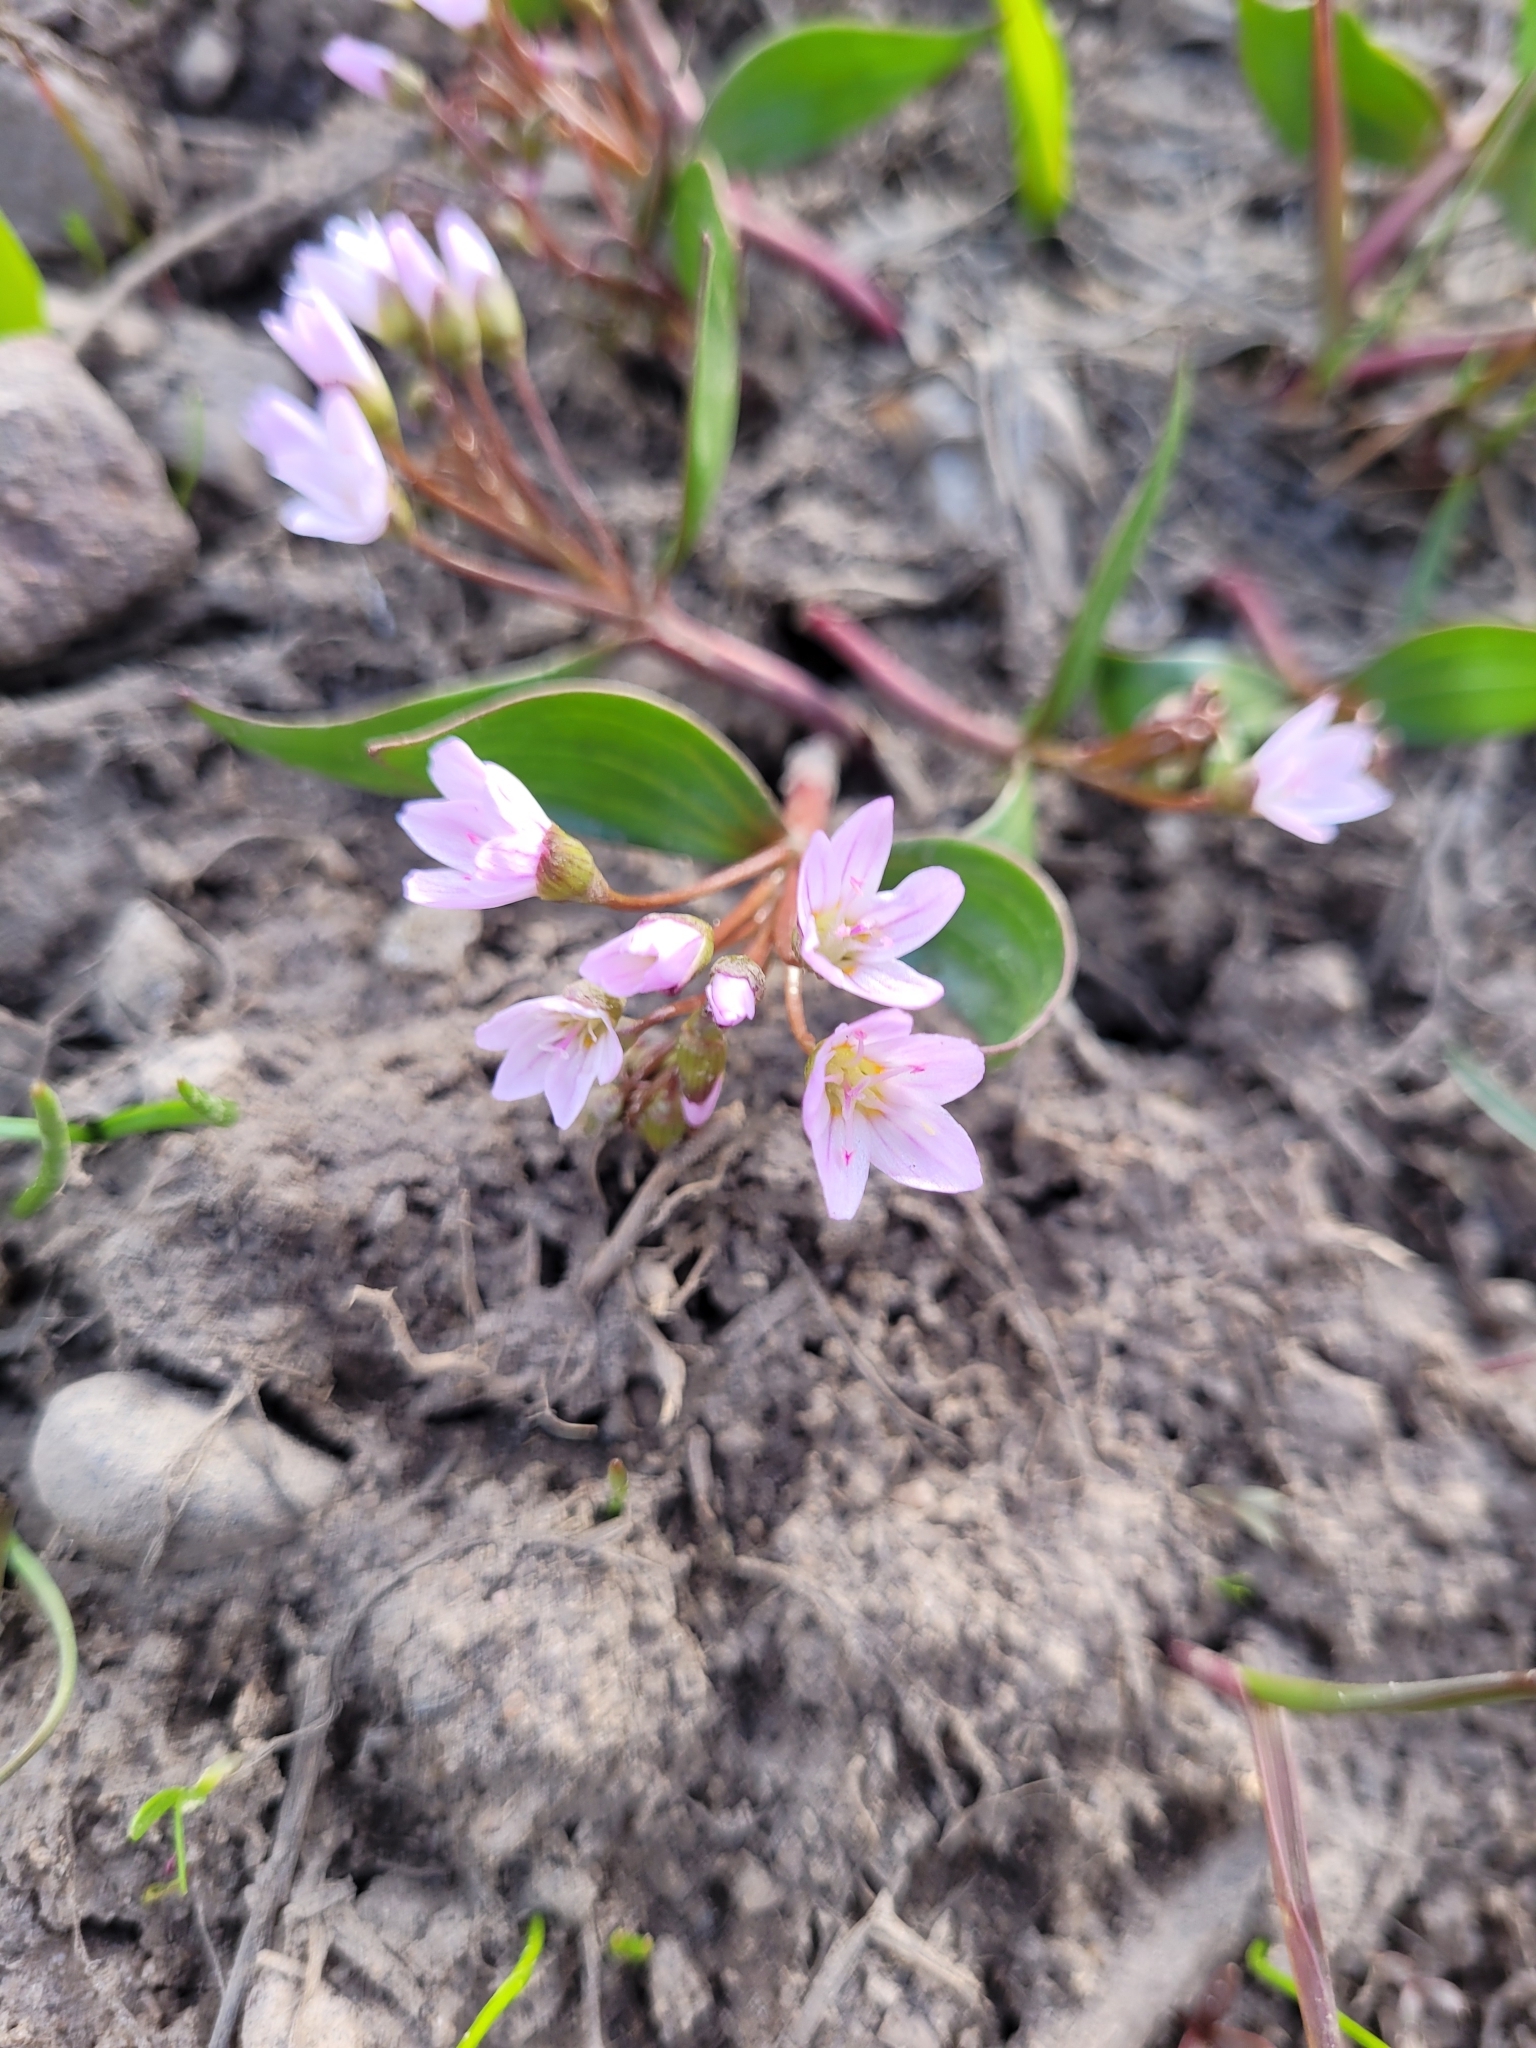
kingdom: Plantae
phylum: Tracheophyta
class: Magnoliopsida
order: Caryophyllales
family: Montiaceae
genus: Claytonia
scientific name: Claytonia lanceolata
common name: Western spring-beauty
